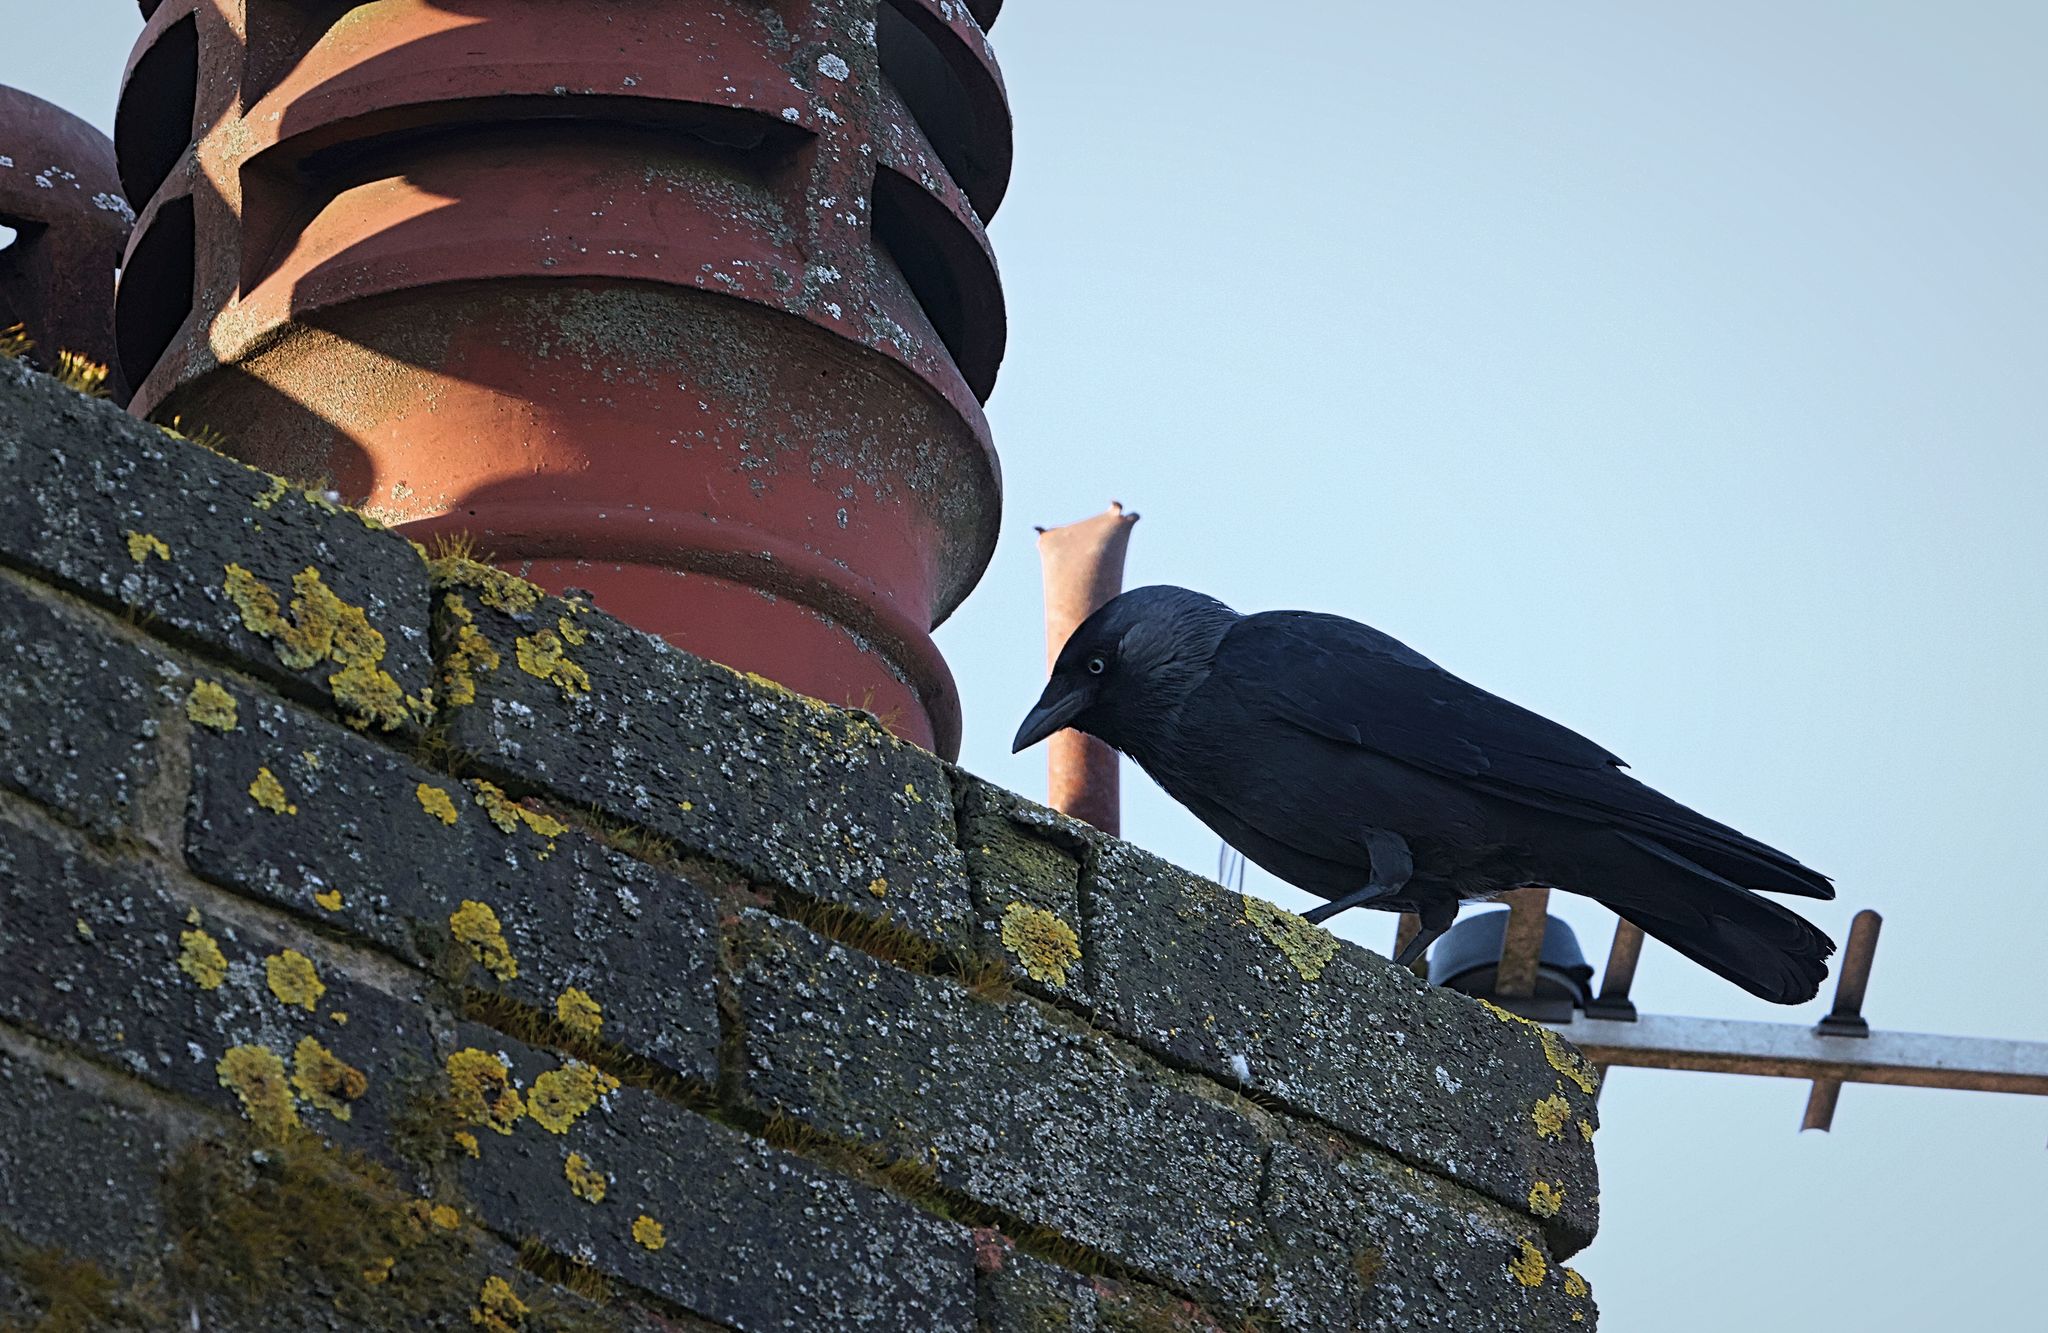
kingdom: Animalia
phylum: Chordata
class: Aves
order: Passeriformes
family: Corvidae
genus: Coloeus
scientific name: Coloeus monedula
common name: Western jackdaw
